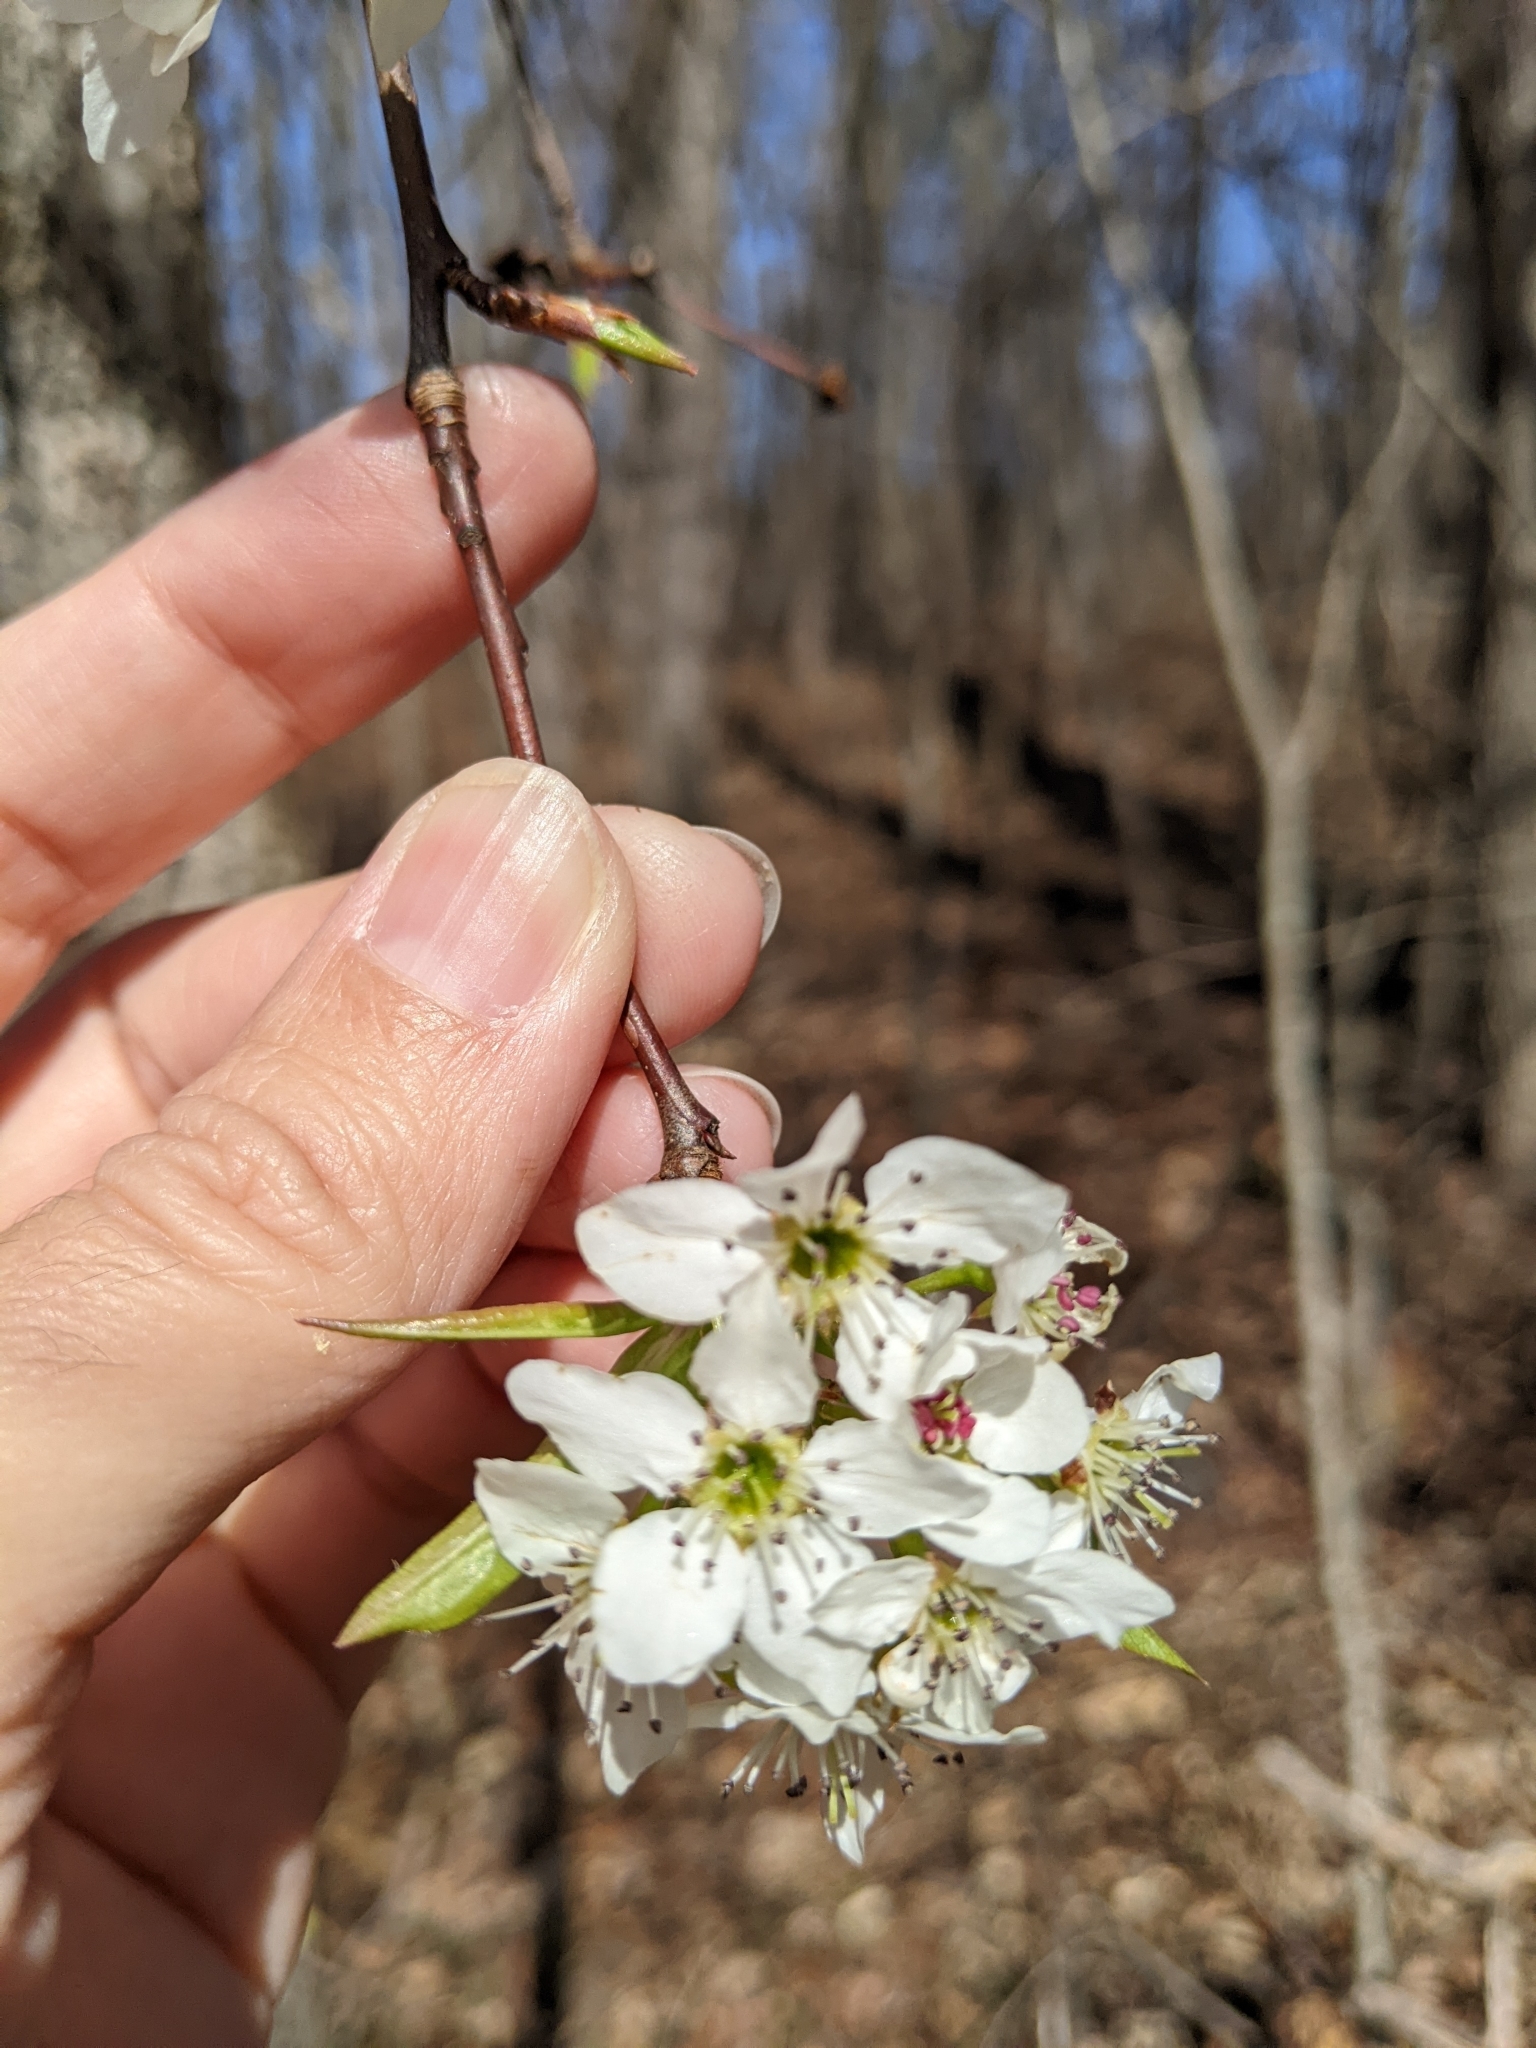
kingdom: Plantae
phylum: Tracheophyta
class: Magnoliopsida
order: Rosales
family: Rosaceae
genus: Pyrus
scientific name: Pyrus calleryana
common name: Callery pear
